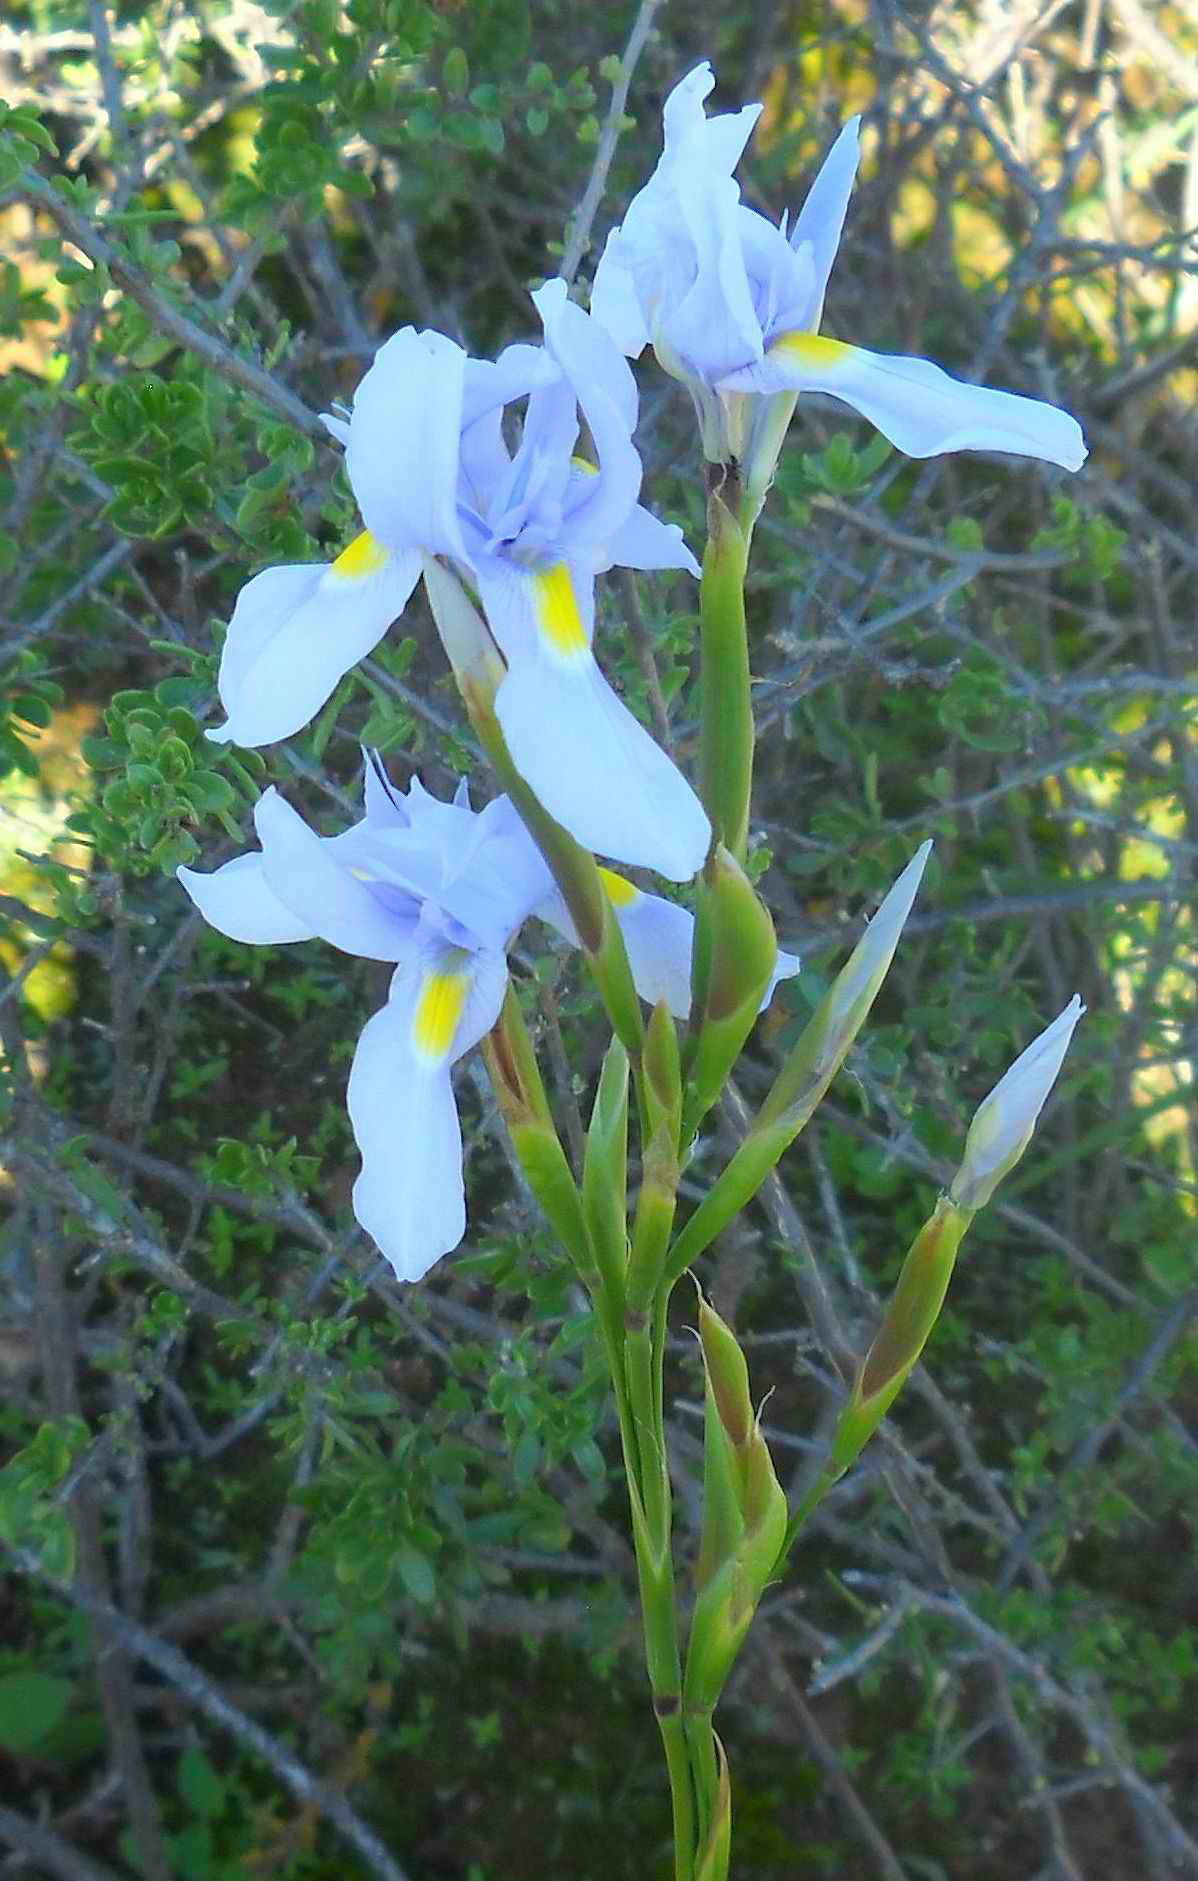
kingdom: Plantae
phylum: Tracheophyta
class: Liliopsida
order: Asparagales
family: Iridaceae
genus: Moraea
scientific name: Moraea polystachya
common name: Blue-tulip
